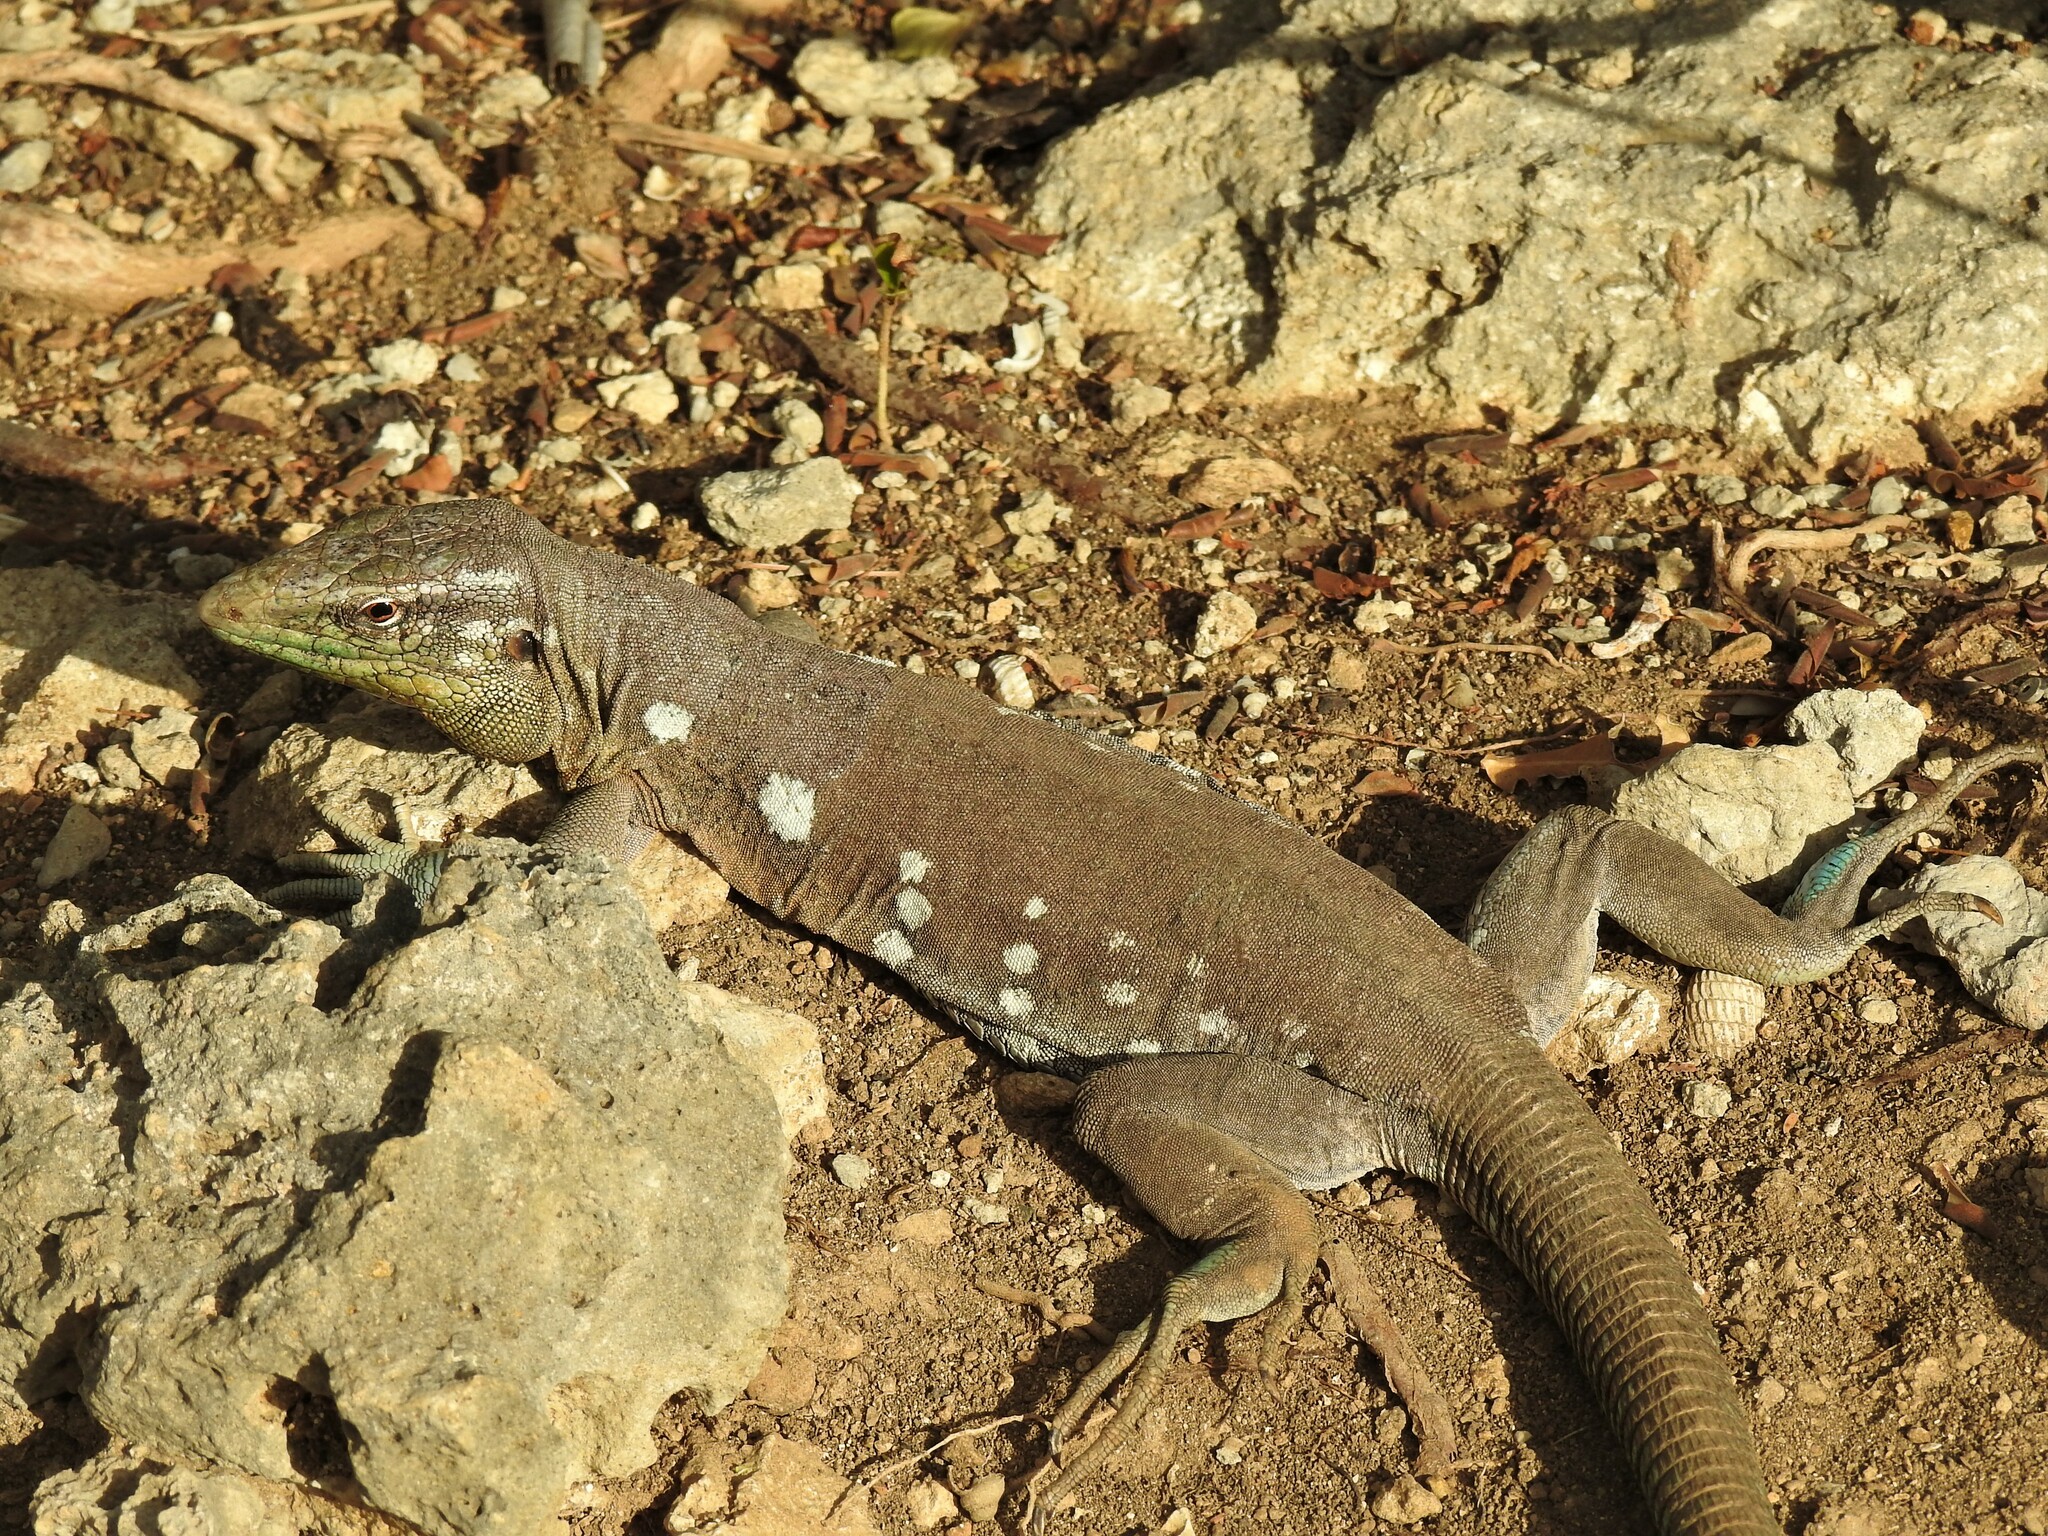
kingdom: Animalia
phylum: Chordata
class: Squamata
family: Teiidae
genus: Cnemidophorus
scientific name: Cnemidophorus murinus
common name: Laurent's whiptail
